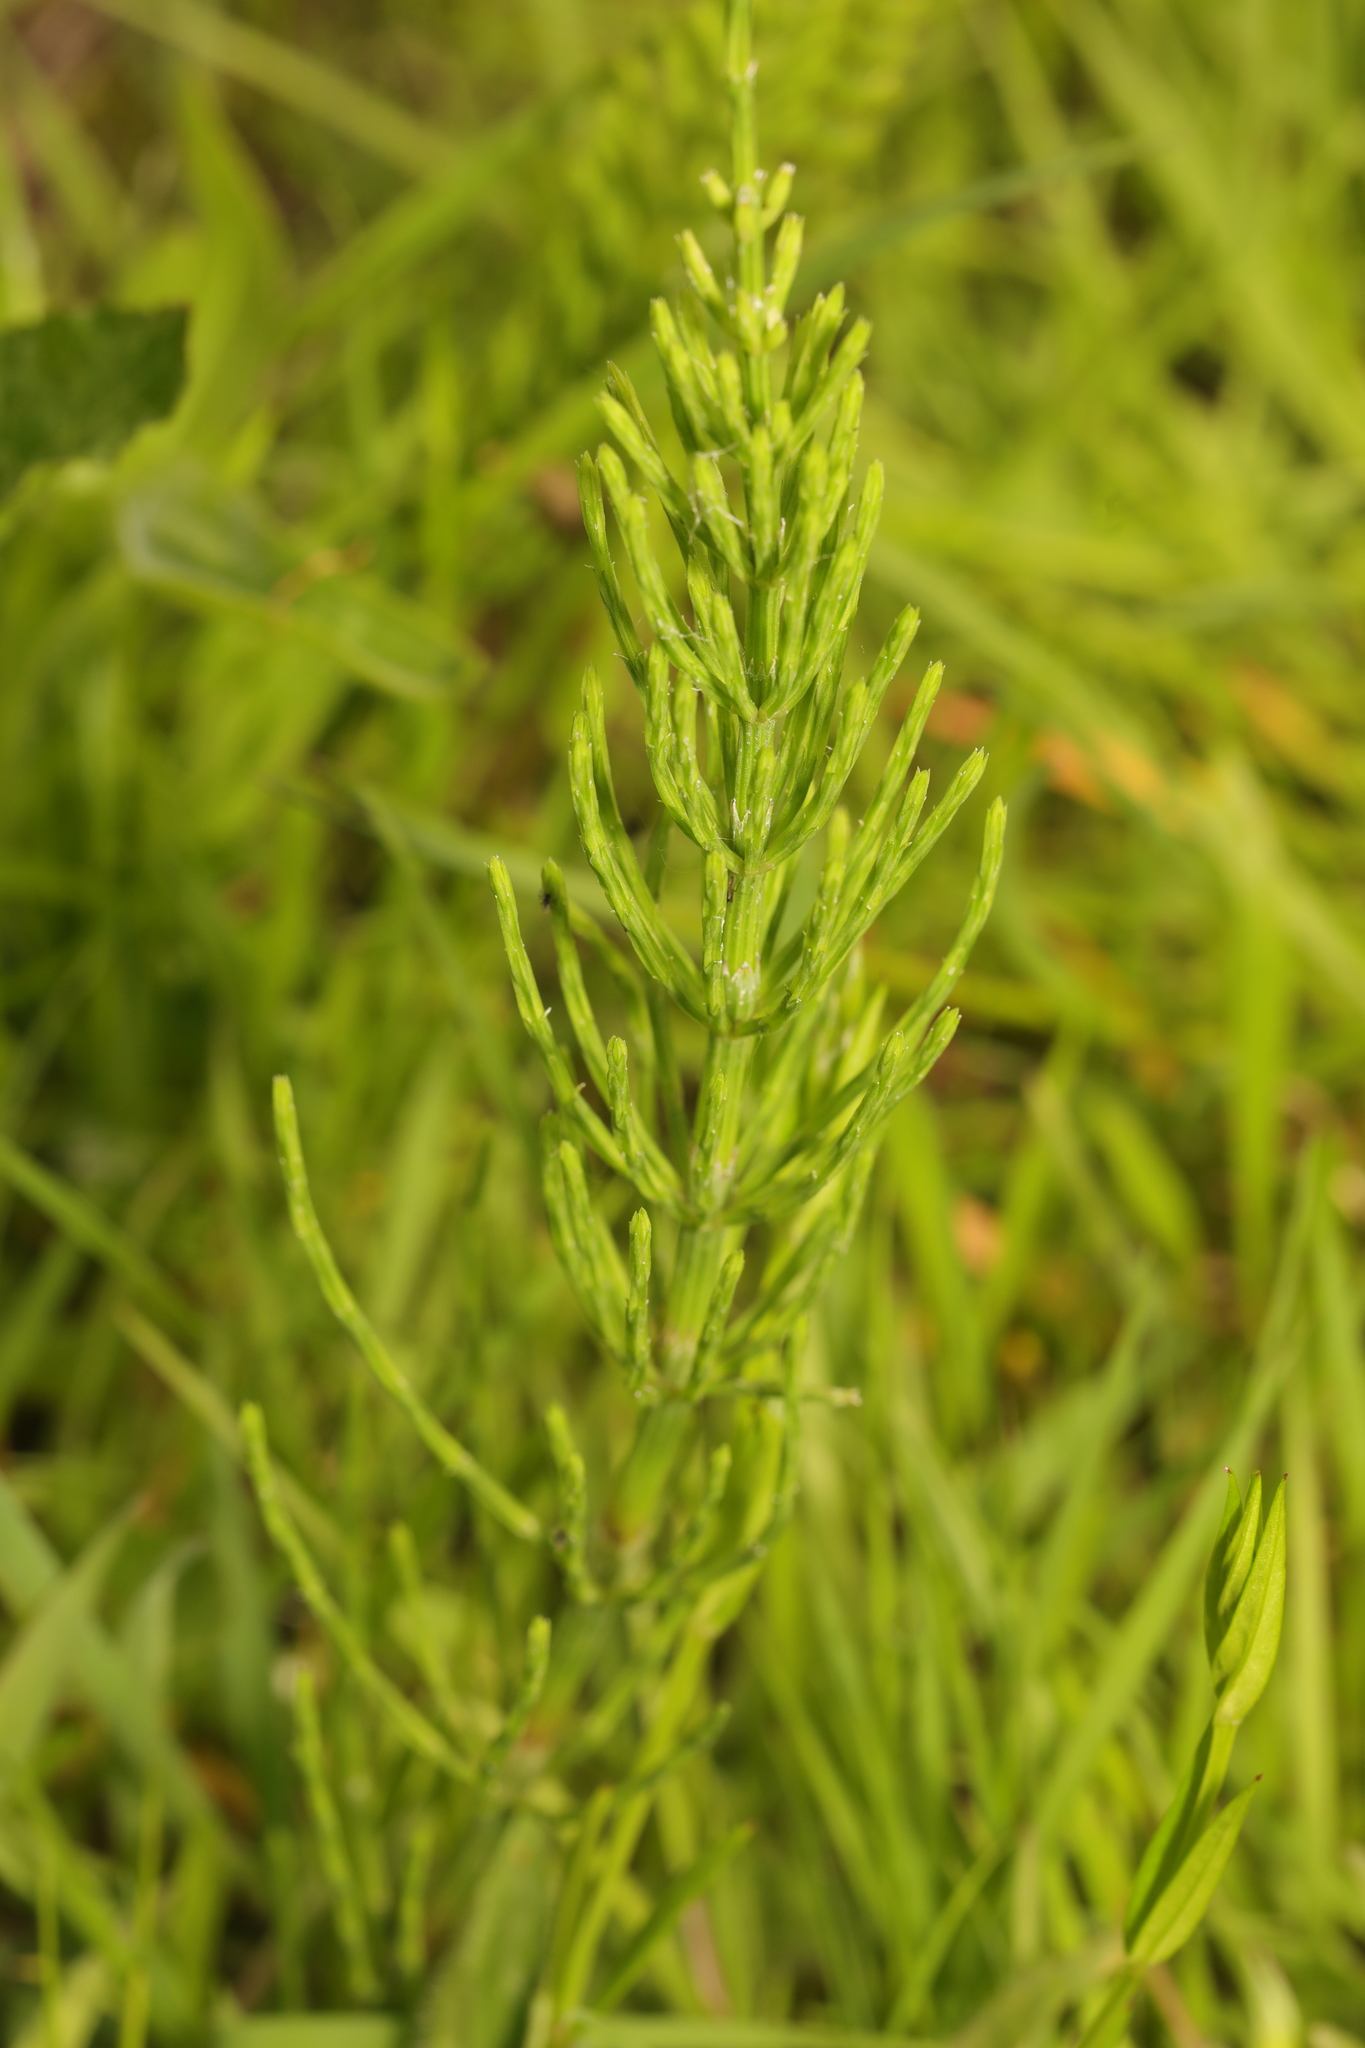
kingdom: Plantae
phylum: Tracheophyta
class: Polypodiopsida
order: Equisetales
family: Equisetaceae
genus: Equisetum
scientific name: Equisetum arvense
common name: Field horsetail
